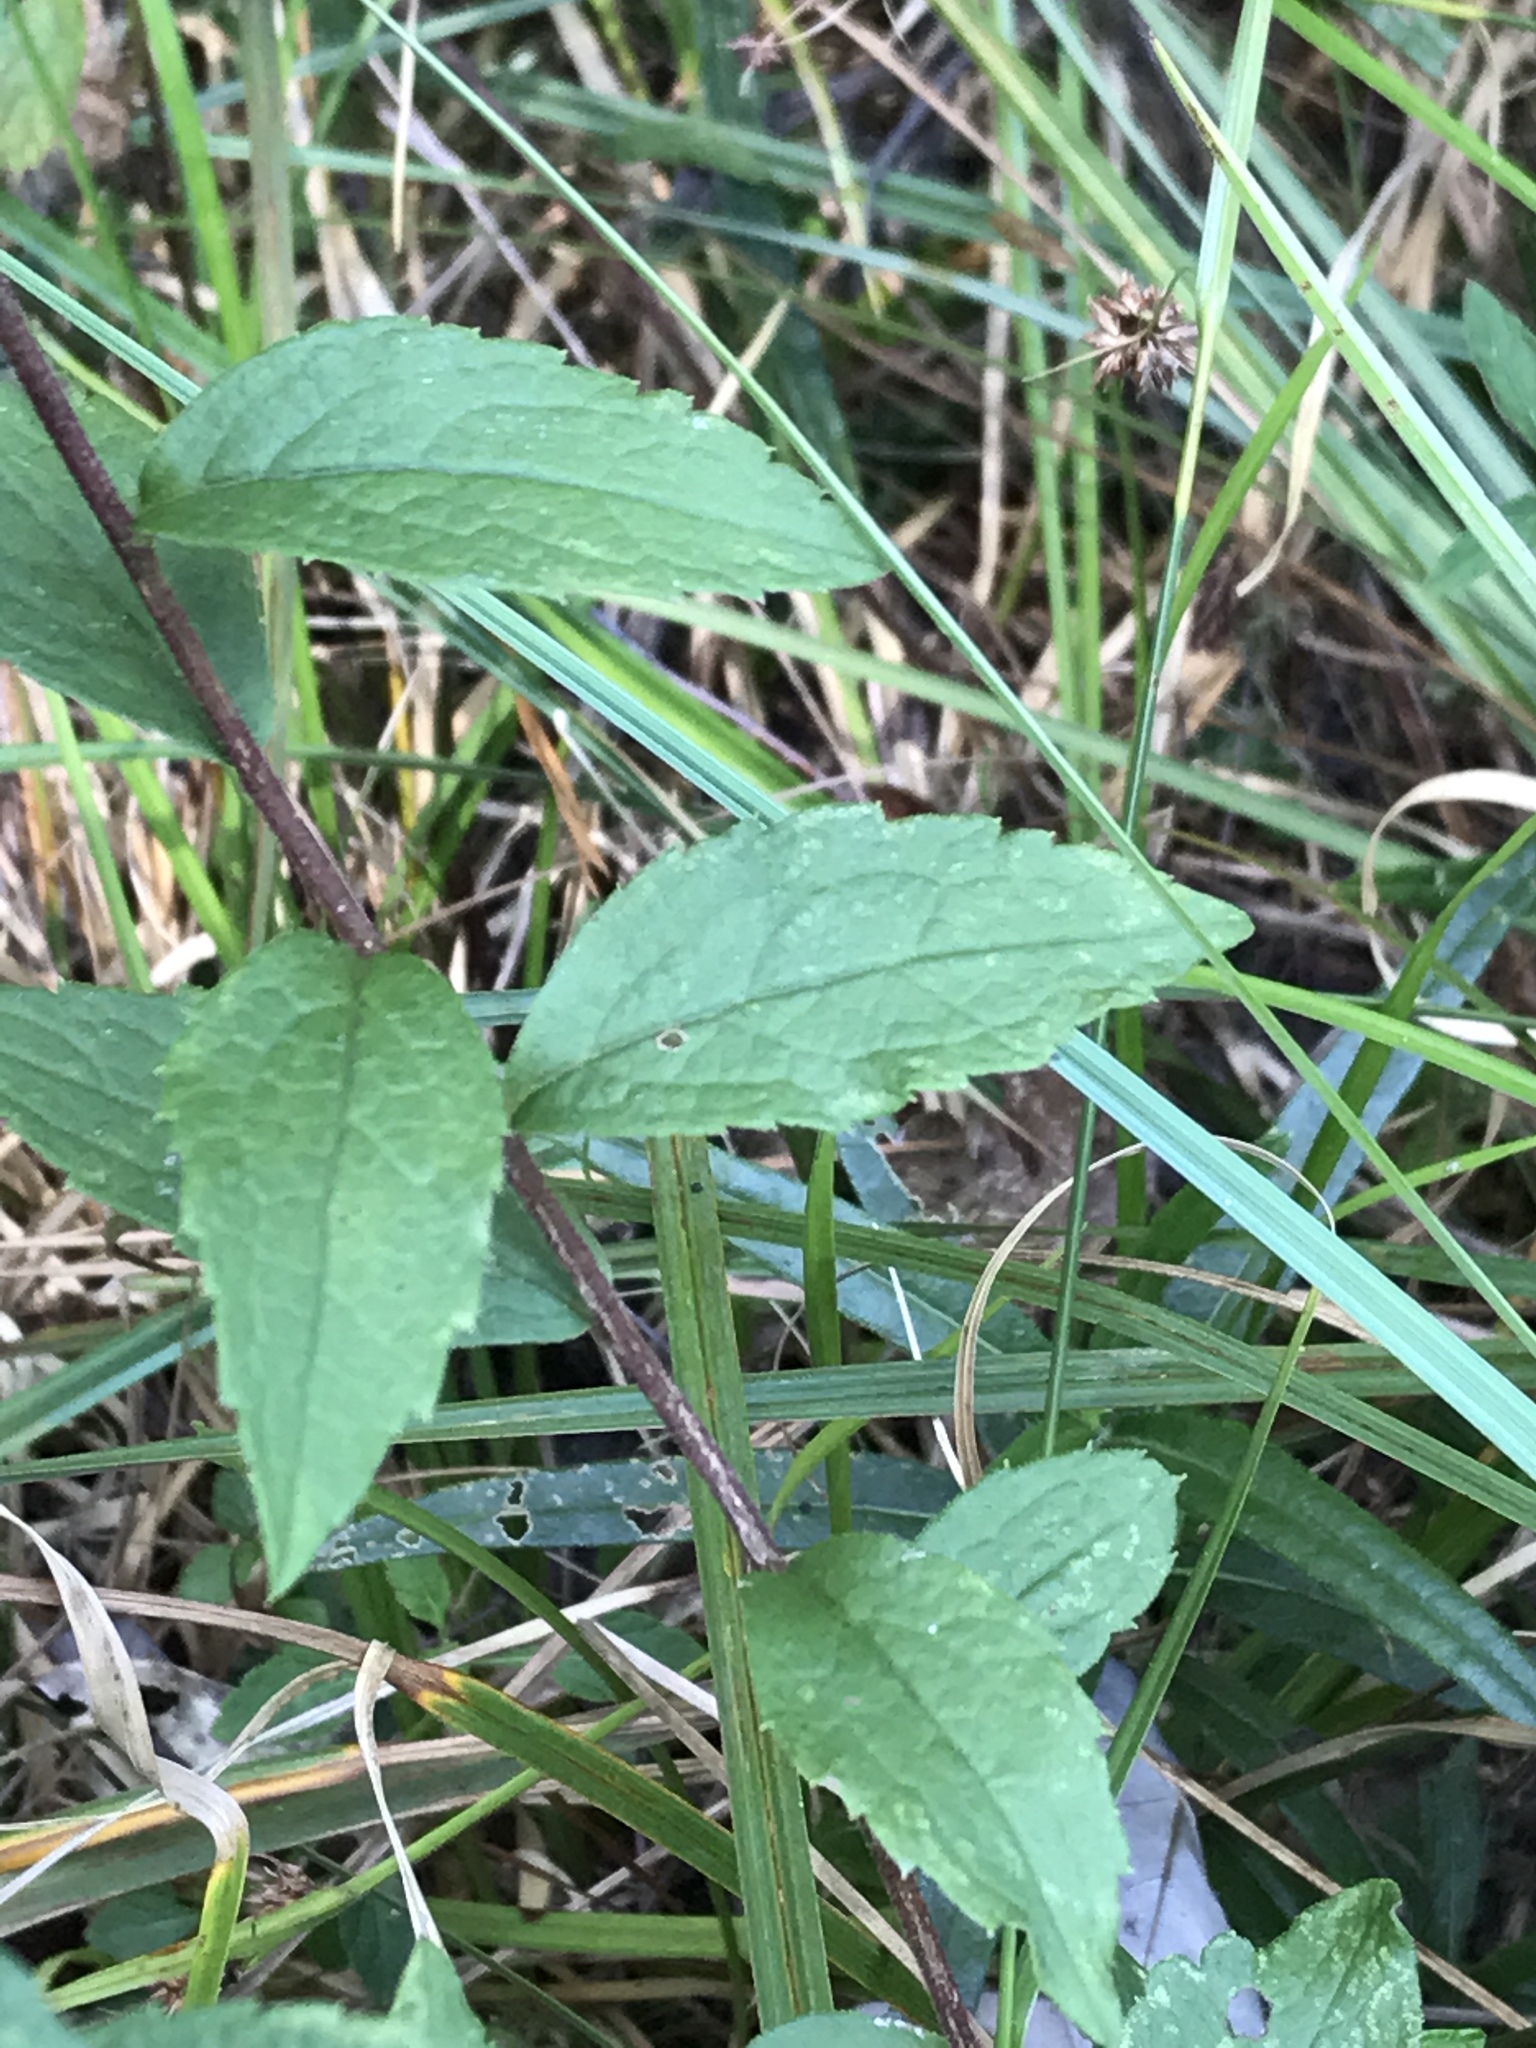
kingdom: Plantae
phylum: Tracheophyta
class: Magnoliopsida
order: Asterales
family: Asteraceae
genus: Solidago
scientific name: Solidago rugosa
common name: Rough-stemmed goldenrod
